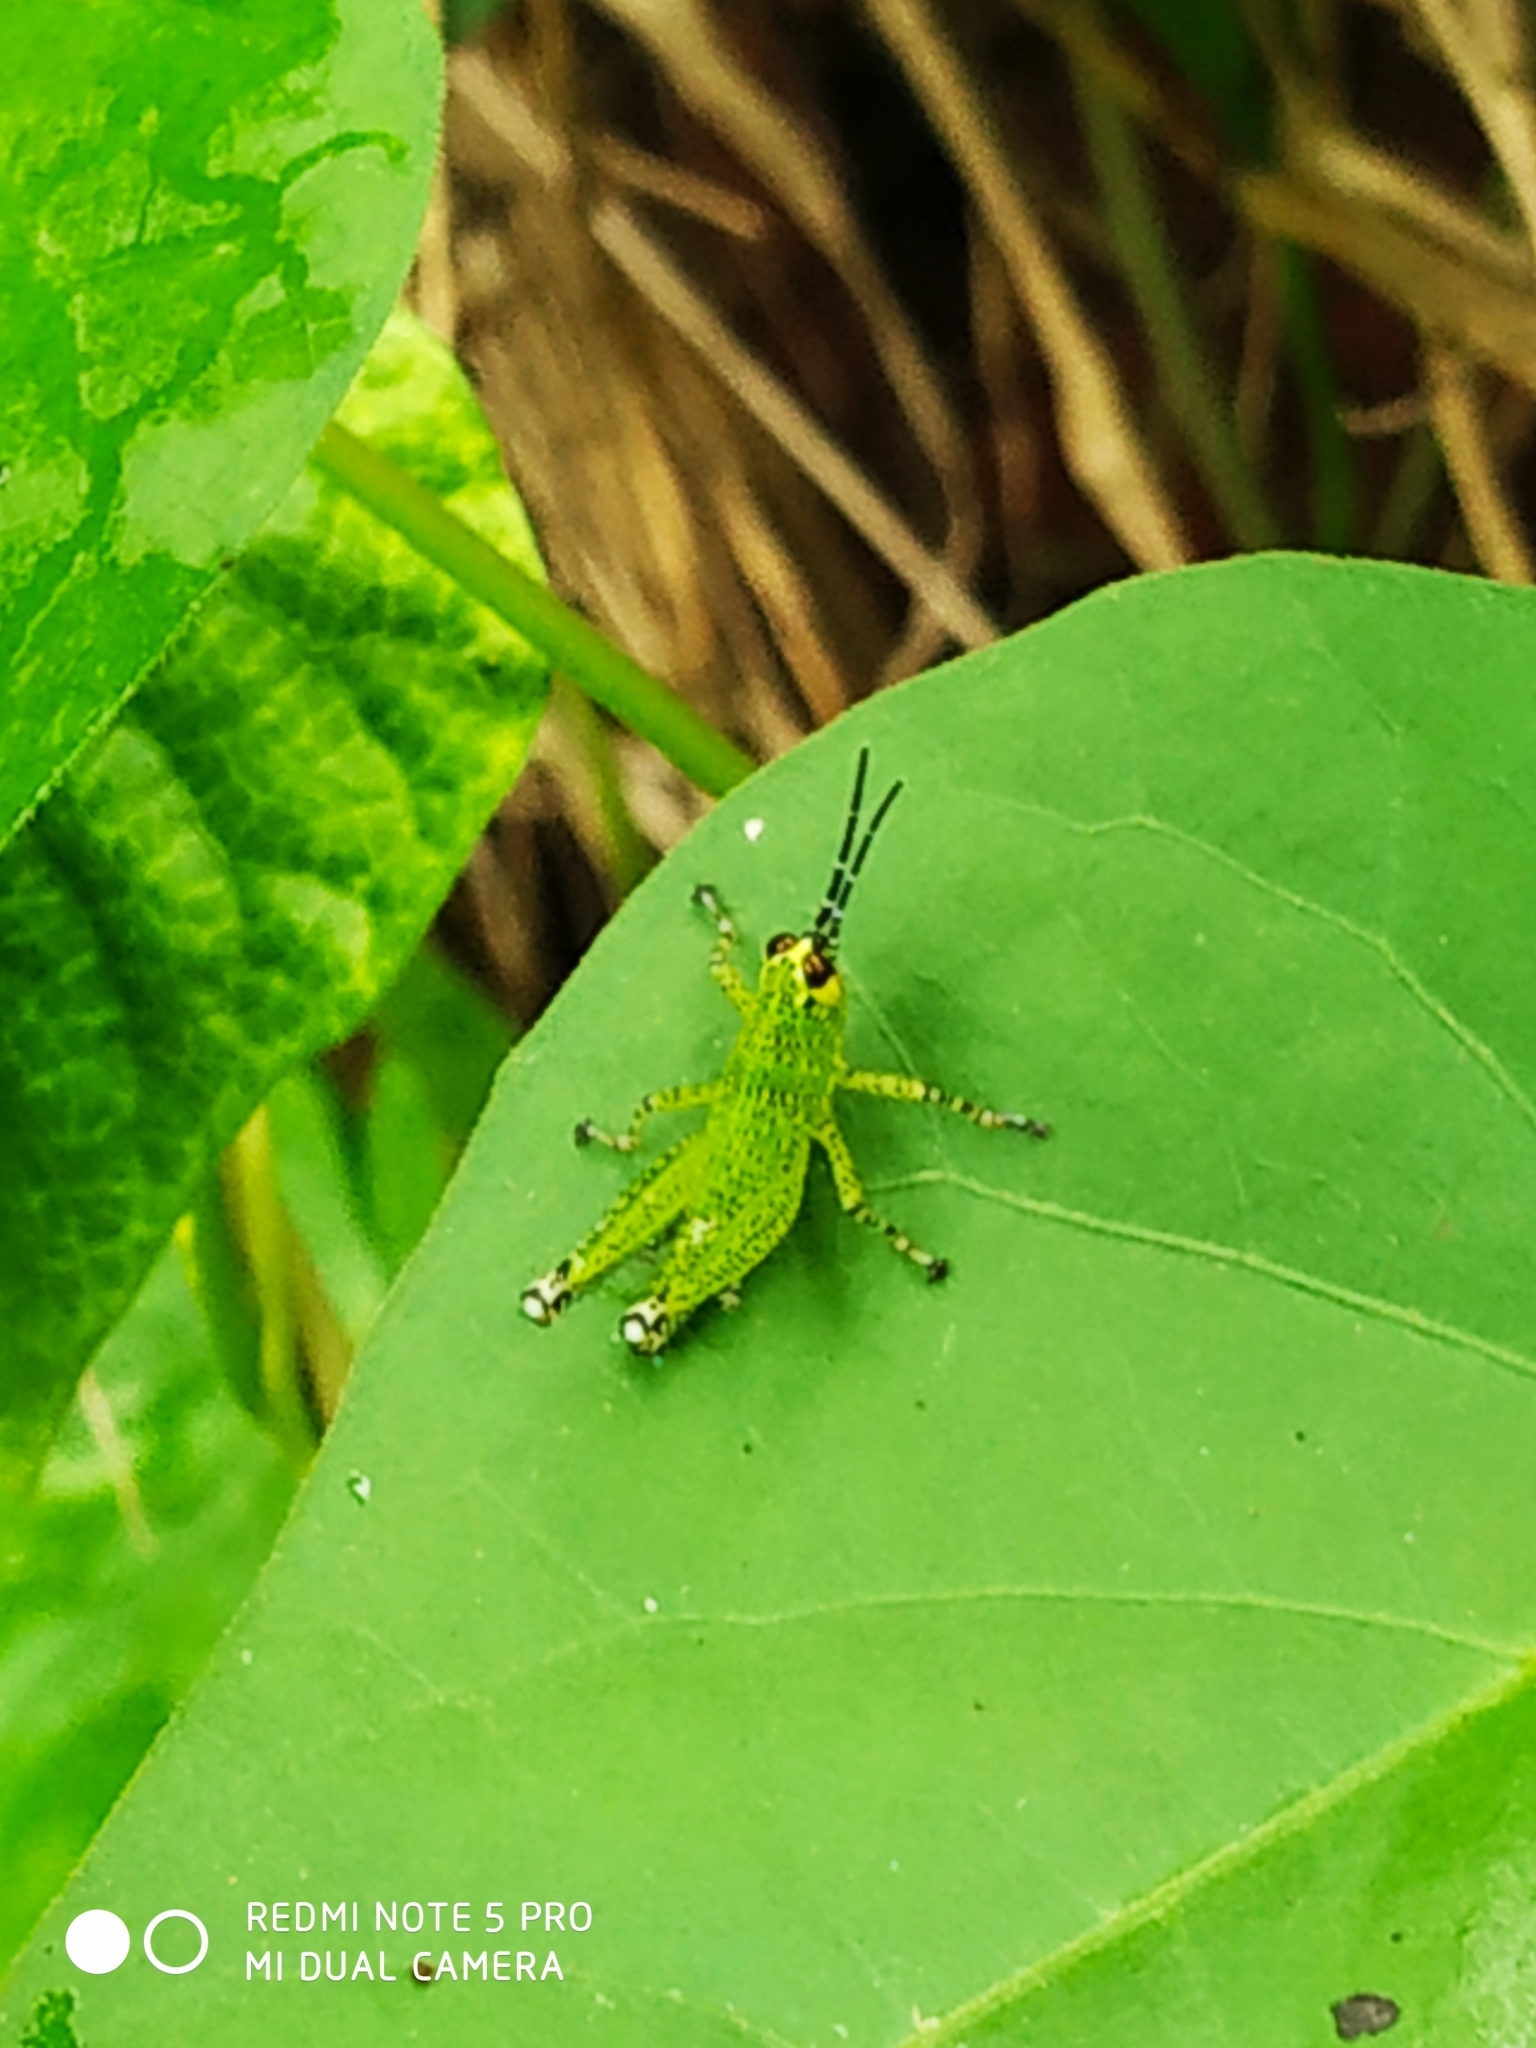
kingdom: Animalia
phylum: Arthropoda
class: Insecta
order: Orthoptera
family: Acrididae
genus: Xenocatantops
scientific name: Xenocatantops humile
